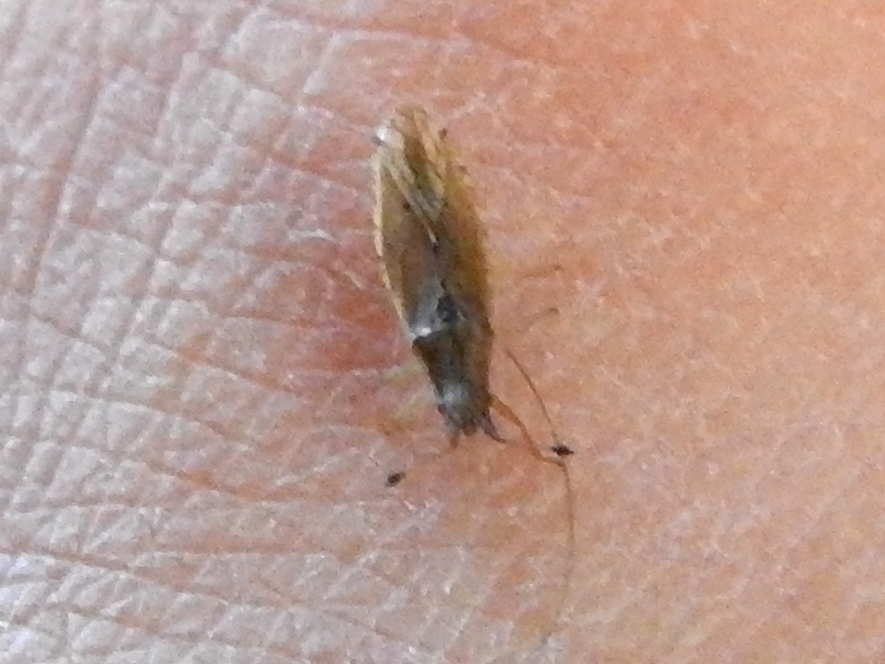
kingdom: Animalia
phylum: Arthropoda
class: Insecta
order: Hemiptera
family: Cryptorhamphidae
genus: Cryptorhamphus
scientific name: Cryptorhamphus orbus
